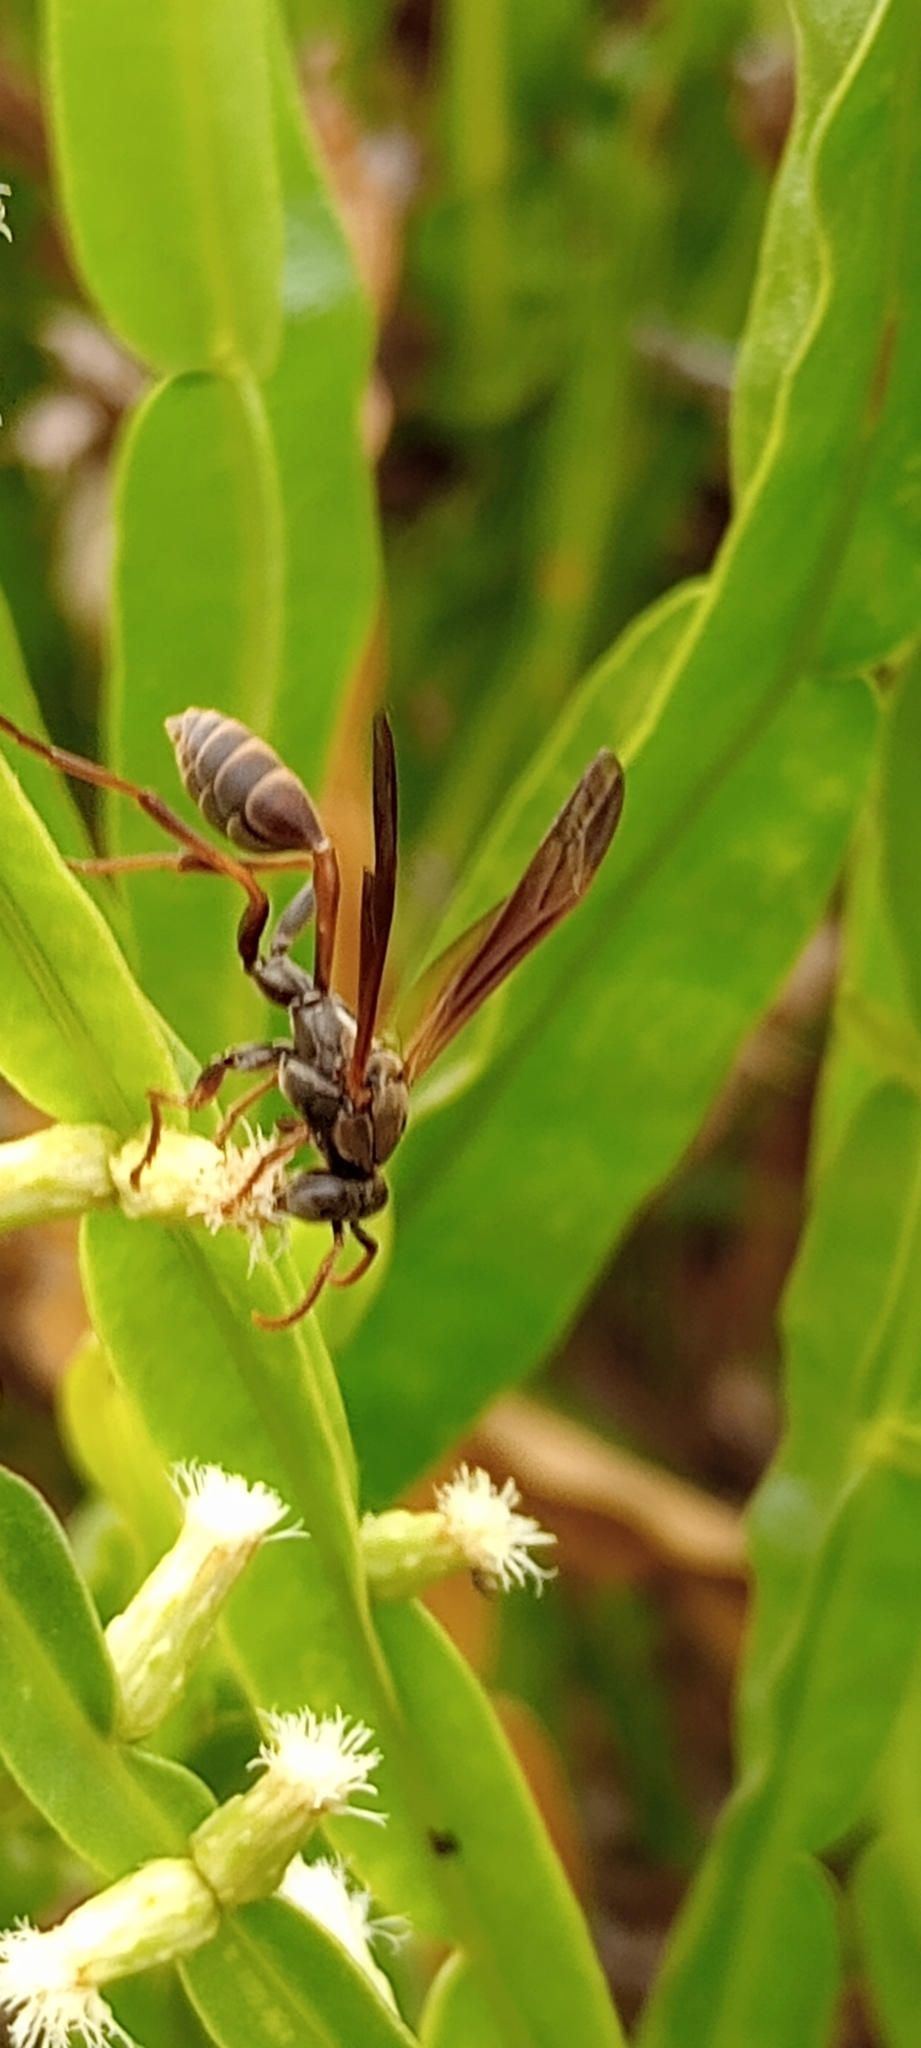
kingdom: Animalia
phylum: Arthropoda
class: Insecta
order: Hymenoptera
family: Vespidae
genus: Mischocyttarus
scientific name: Mischocyttarus drewseni
